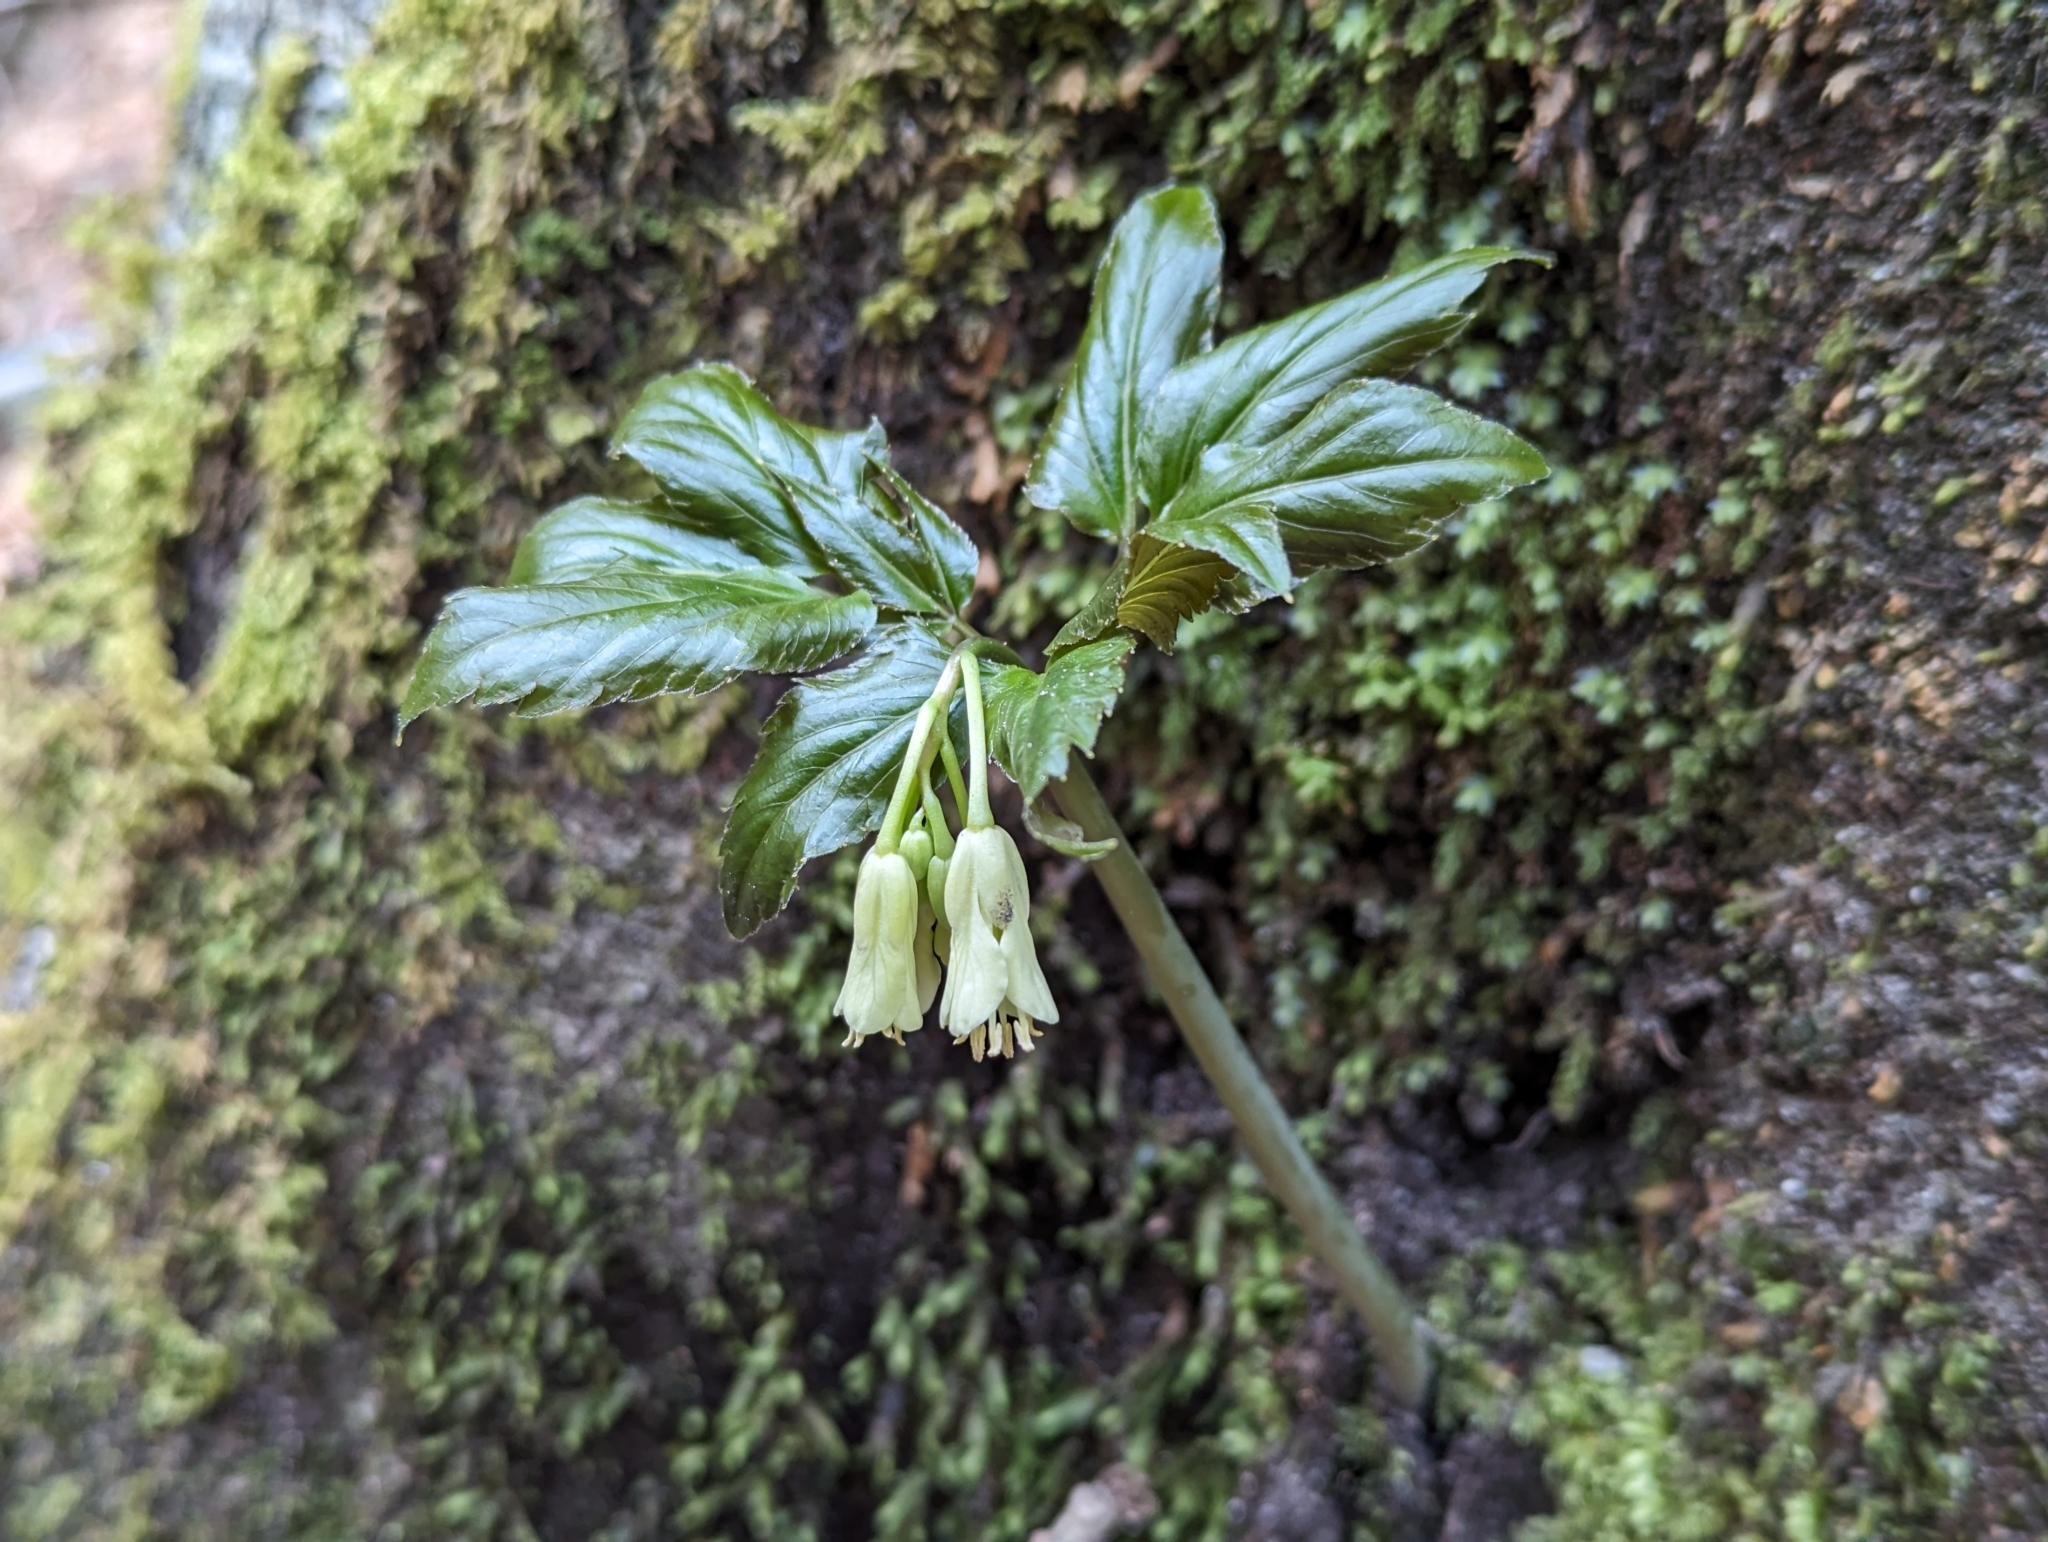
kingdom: Plantae
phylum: Tracheophyta
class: Magnoliopsida
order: Brassicales
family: Brassicaceae
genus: Cardamine
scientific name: Cardamine enneaphyllos
